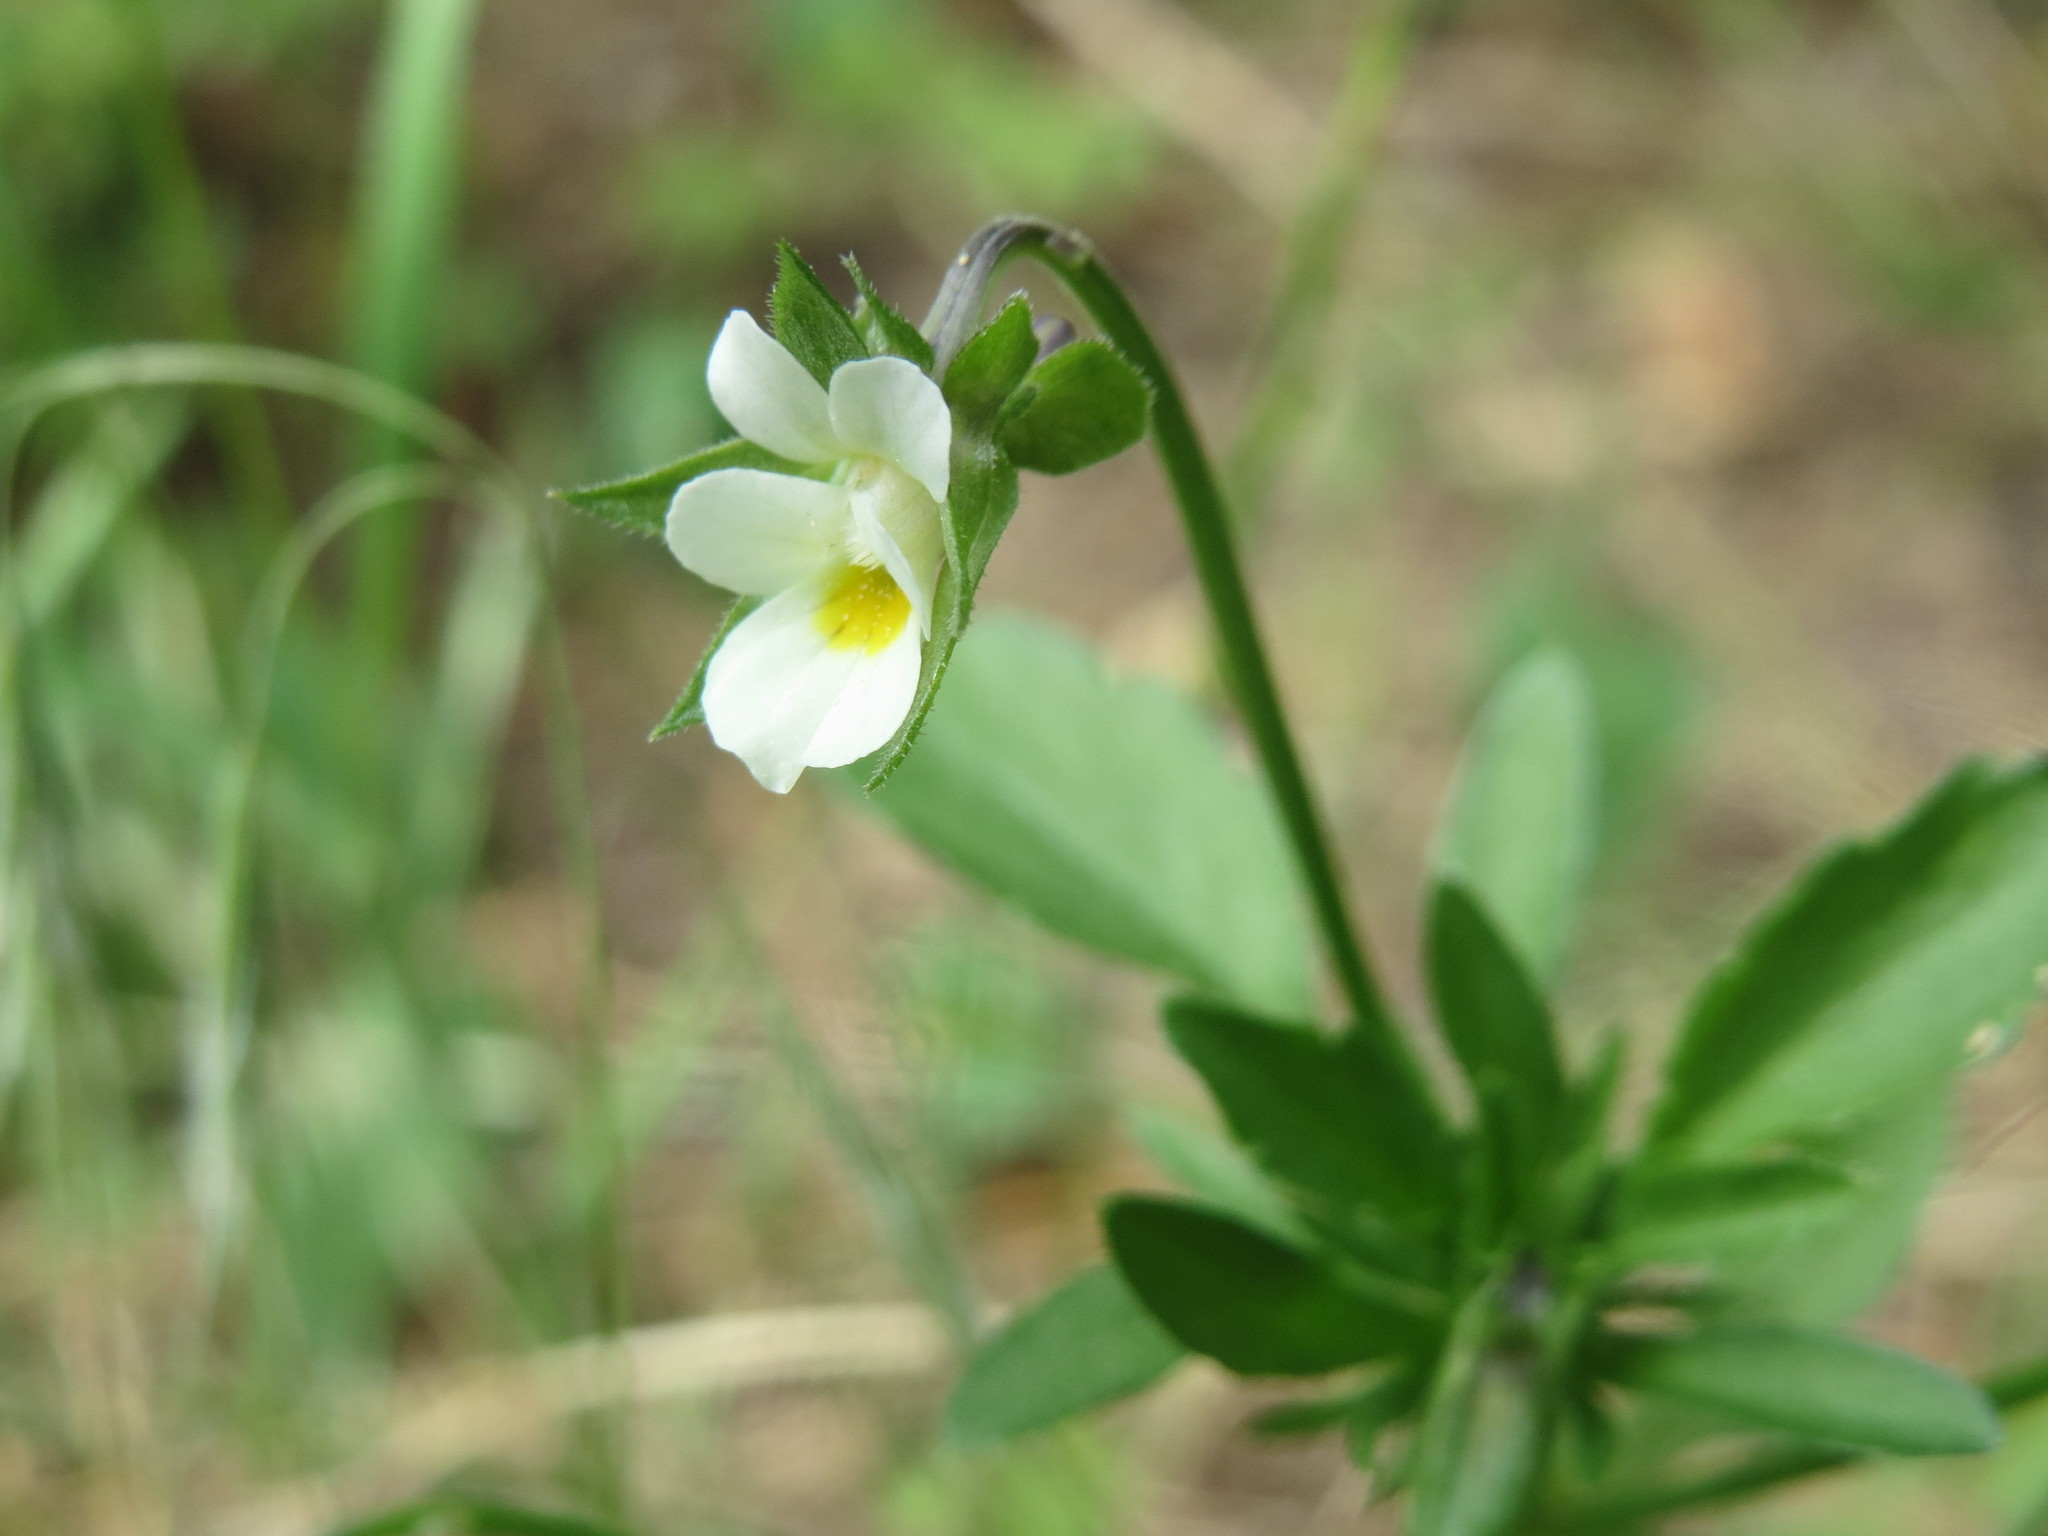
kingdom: Plantae
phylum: Tracheophyta
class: Magnoliopsida
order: Malpighiales
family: Violaceae
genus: Viola
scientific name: Viola arvensis
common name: Field pansy
